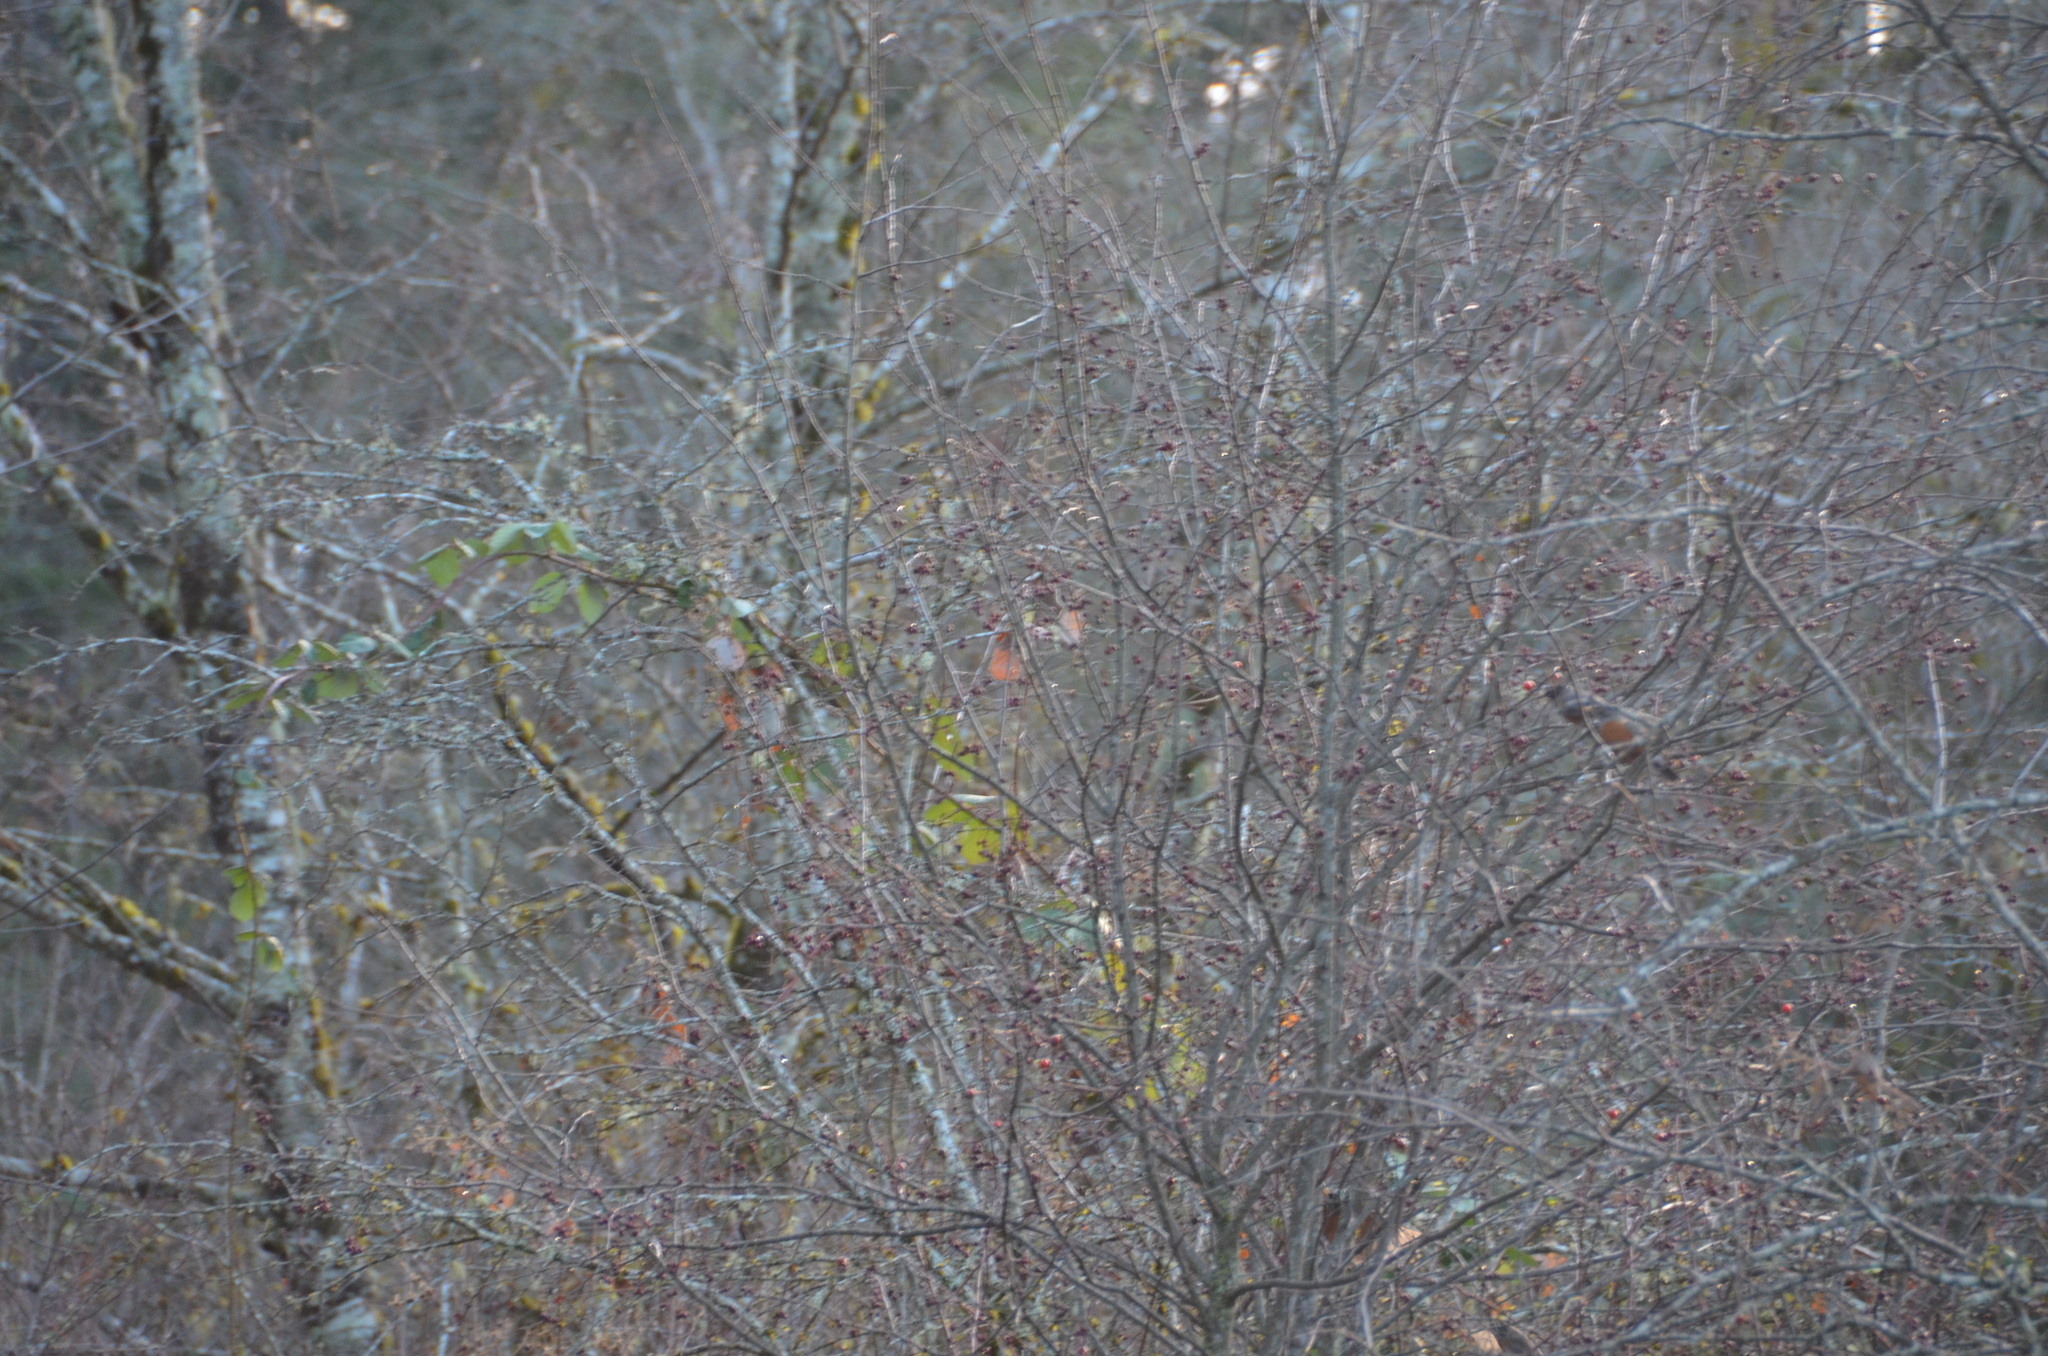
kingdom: Animalia
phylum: Chordata
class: Aves
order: Passeriformes
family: Turdidae
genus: Turdus
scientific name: Turdus migratorius
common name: American robin
